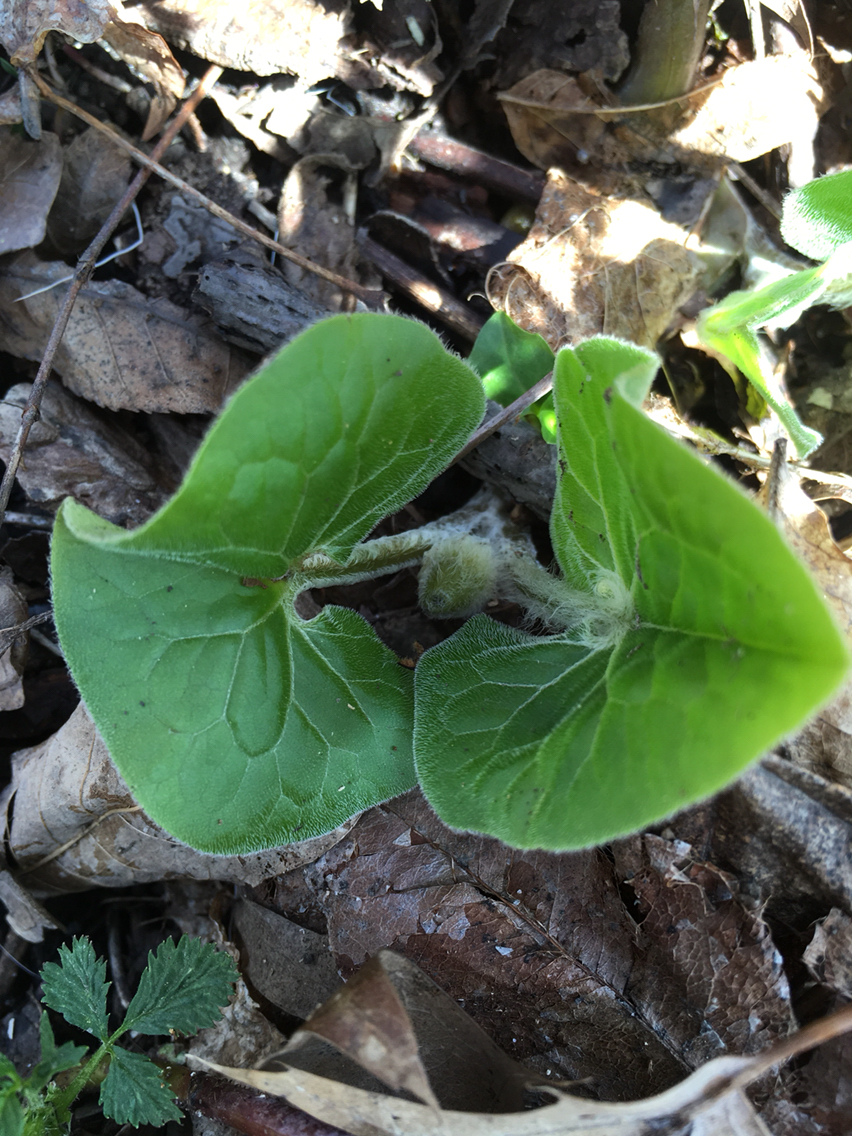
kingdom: Plantae
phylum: Tracheophyta
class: Magnoliopsida
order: Piperales
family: Aristolochiaceae
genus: Asarum
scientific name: Asarum canadense
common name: Wild ginger
